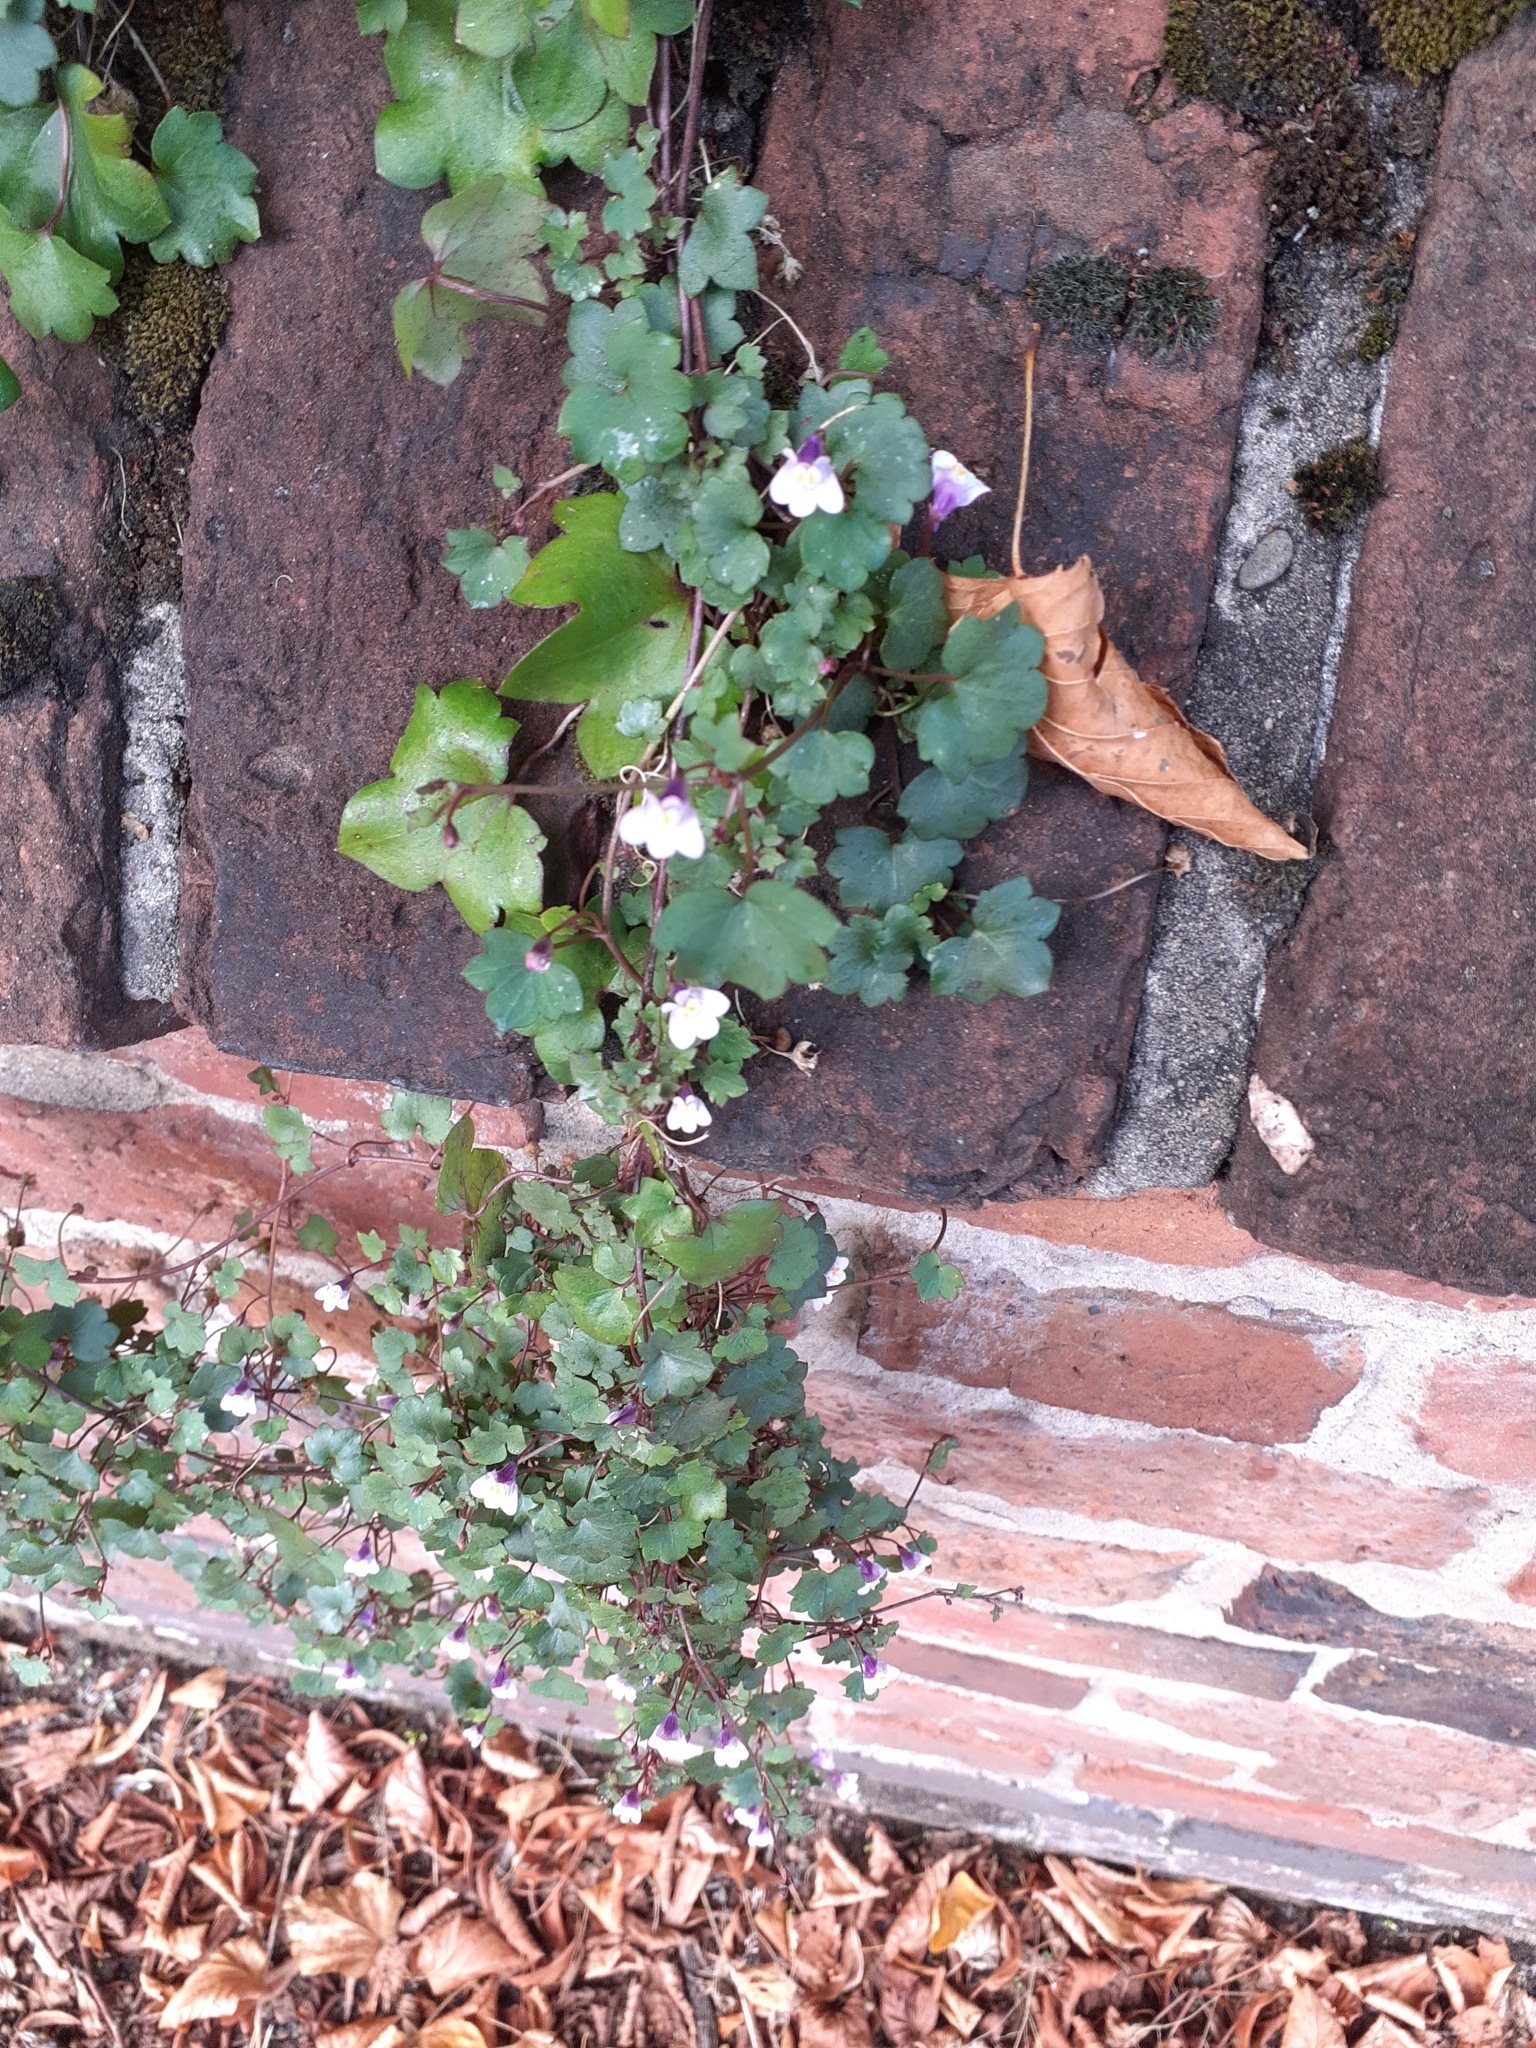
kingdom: Plantae
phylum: Tracheophyta
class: Magnoliopsida
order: Lamiales
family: Plantaginaceae
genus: Cymbalaria
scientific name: Cymbalaria muralis
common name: Ivy-leaved toadflax
